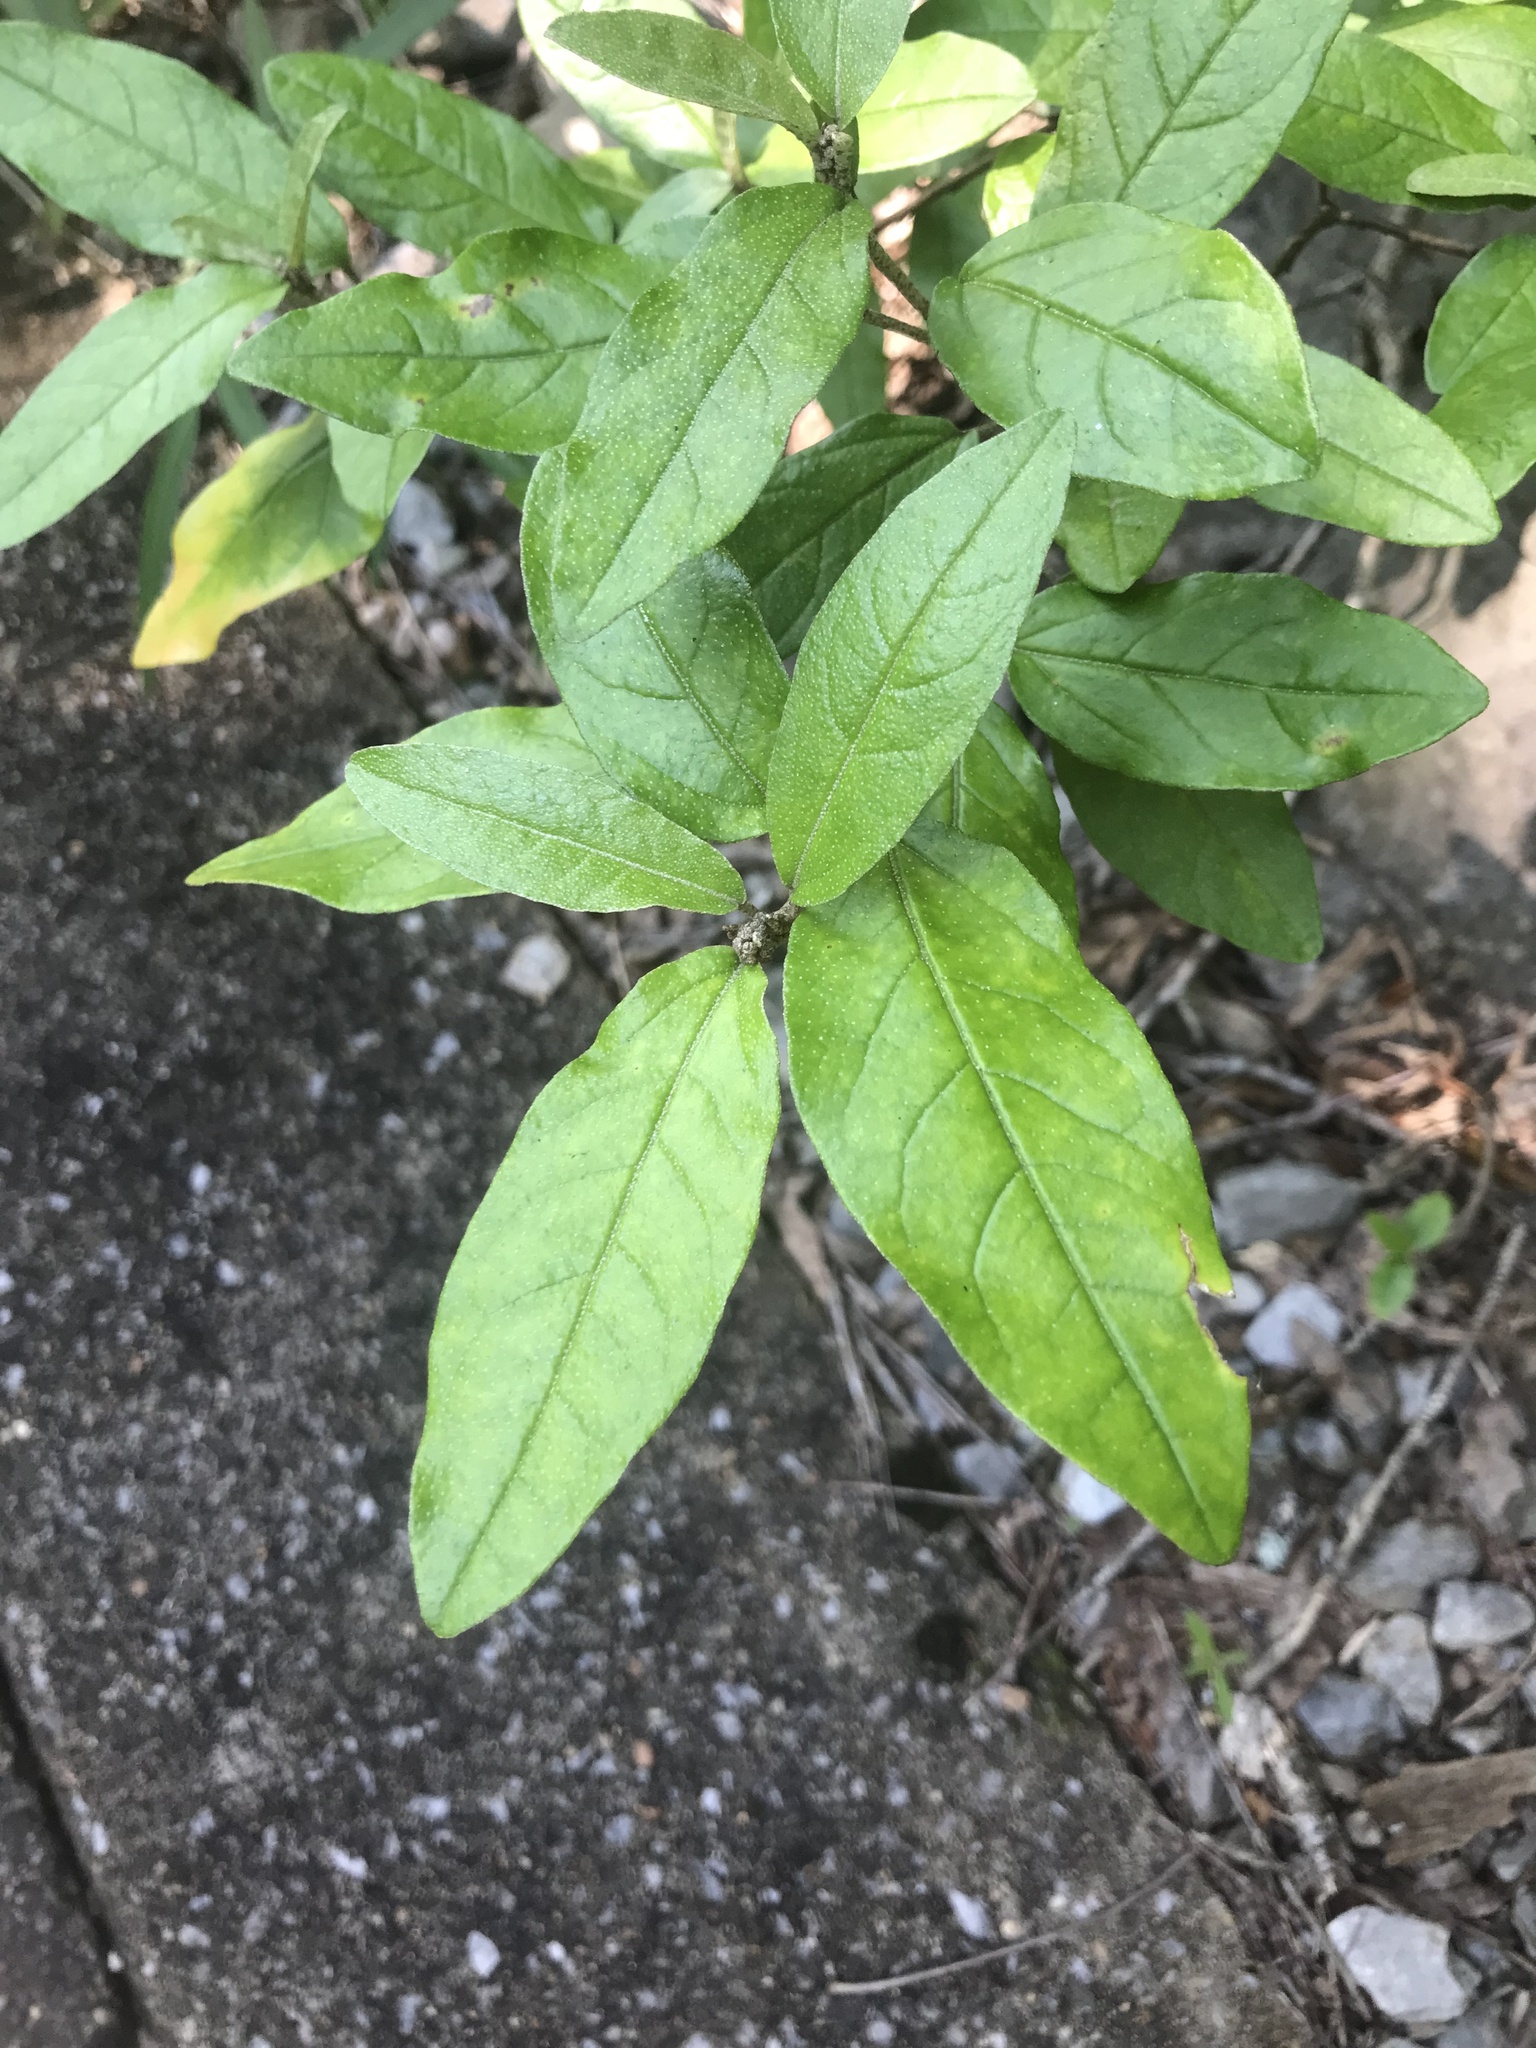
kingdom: Plantae
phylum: Tracheophyta
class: Magnoliopsida
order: Malpighiales
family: Euphorbiaceae
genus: Croton
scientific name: Croton alabamensis
